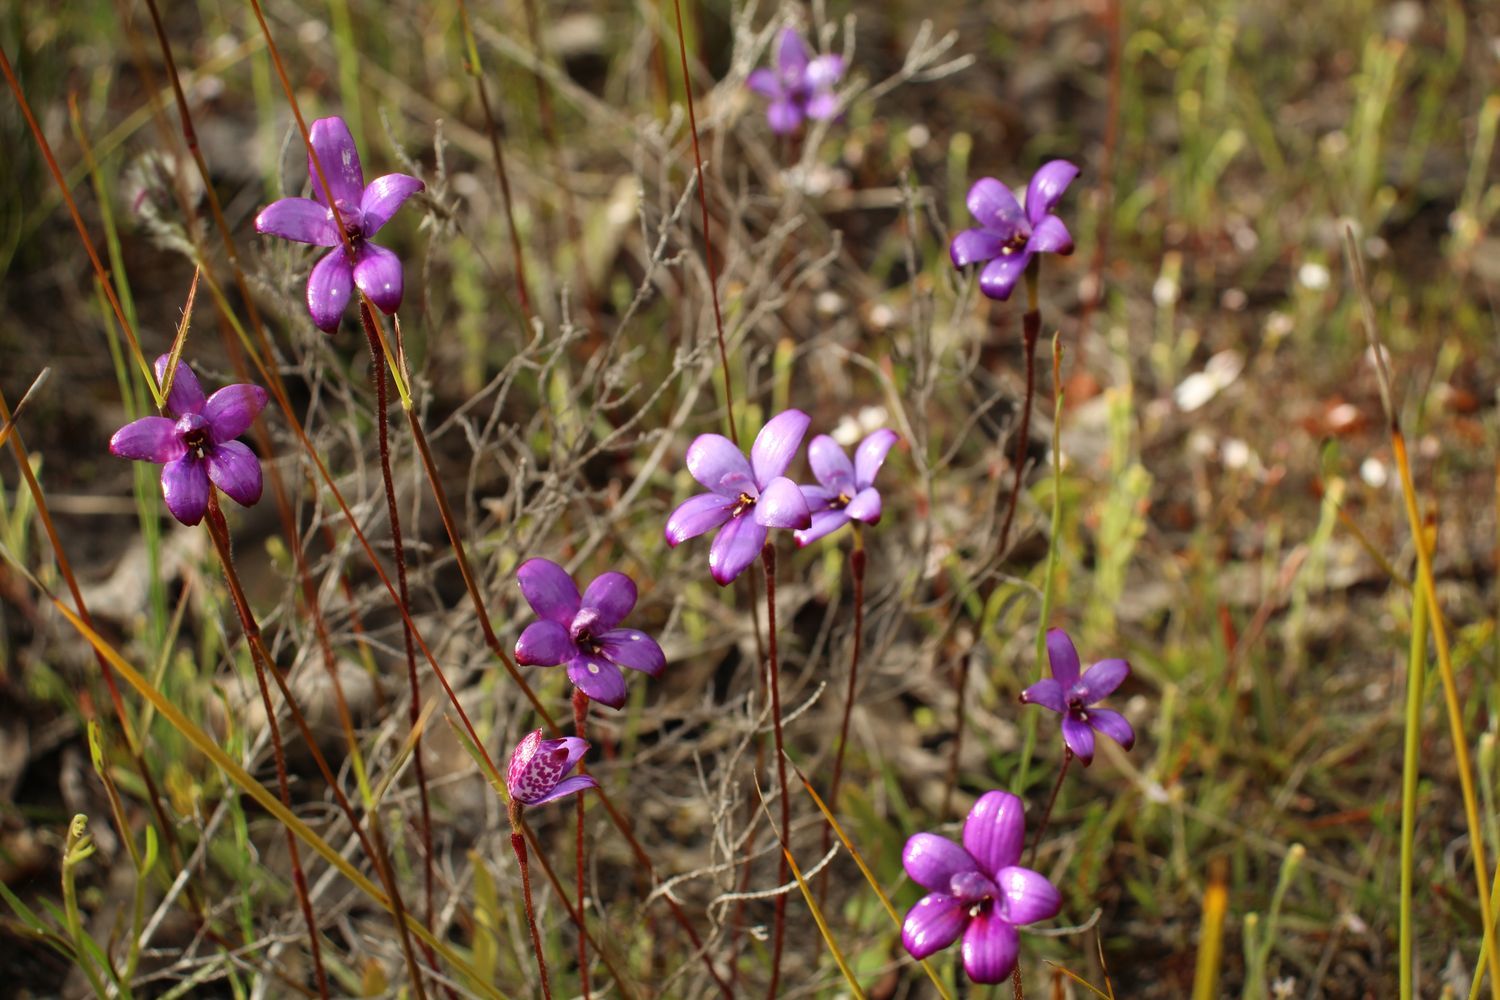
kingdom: Plantae
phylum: Tracheophyta
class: Liliopsida
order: Asparagales
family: Orchidaceae
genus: Caladenia
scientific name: Caladenia brunonis
